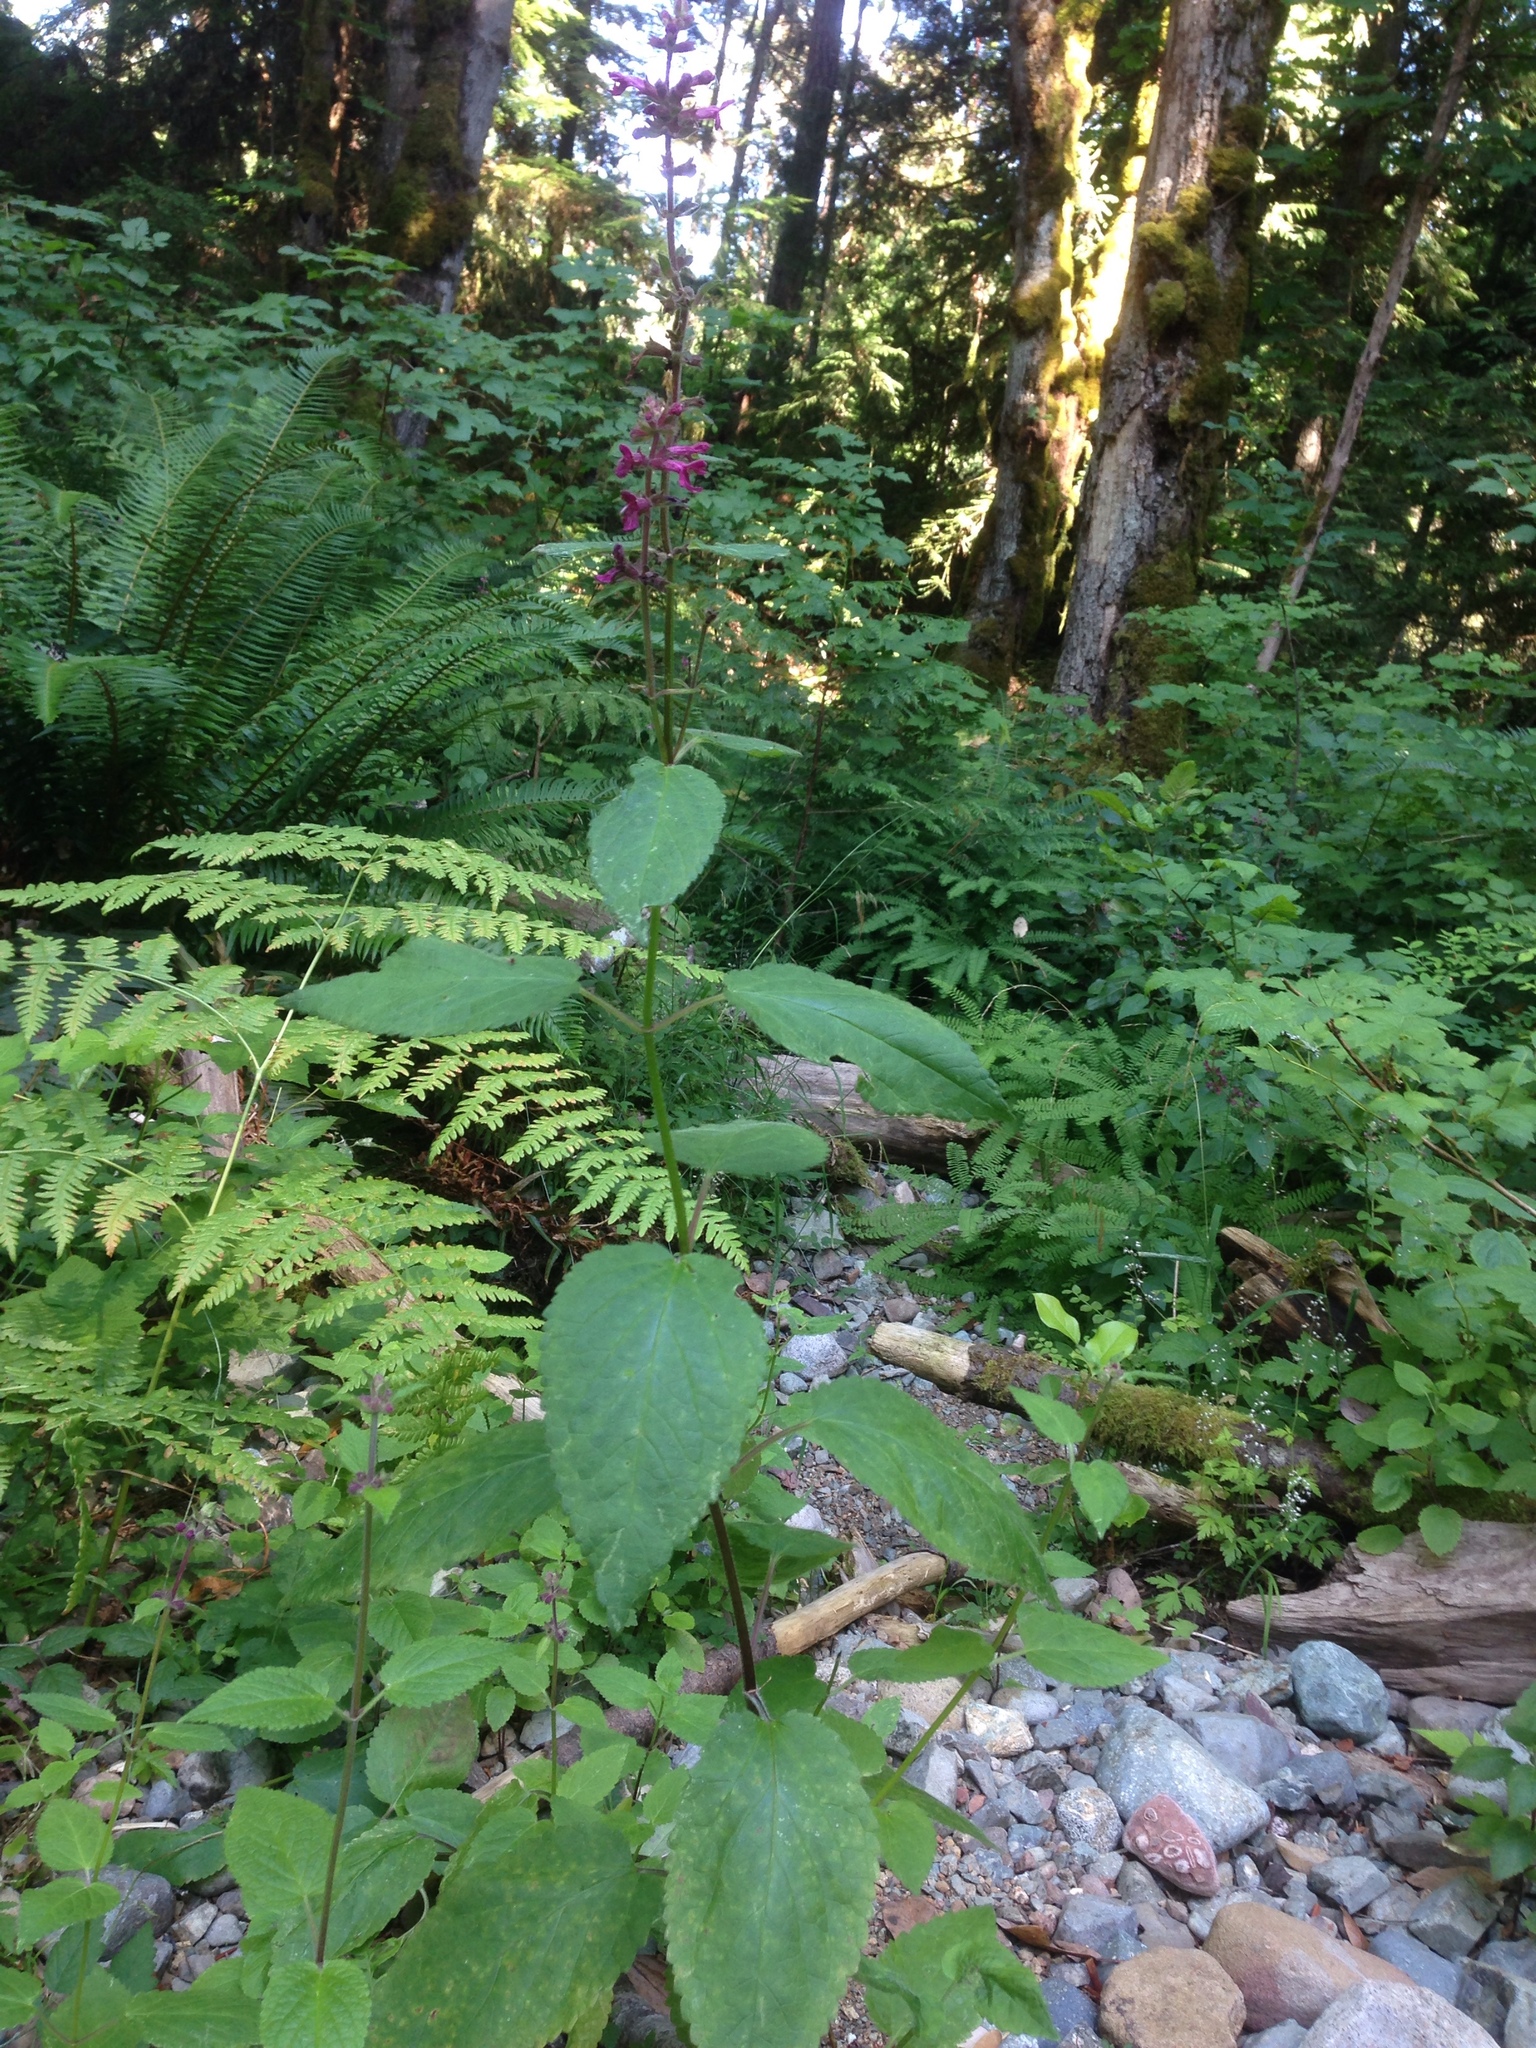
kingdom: Plantae
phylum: Tracheophyta
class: Magnoliopsida
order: Lamiales
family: Lamiaceae
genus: Stachys
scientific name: Stachys chamissonis
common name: Coastal hedge-nettle
